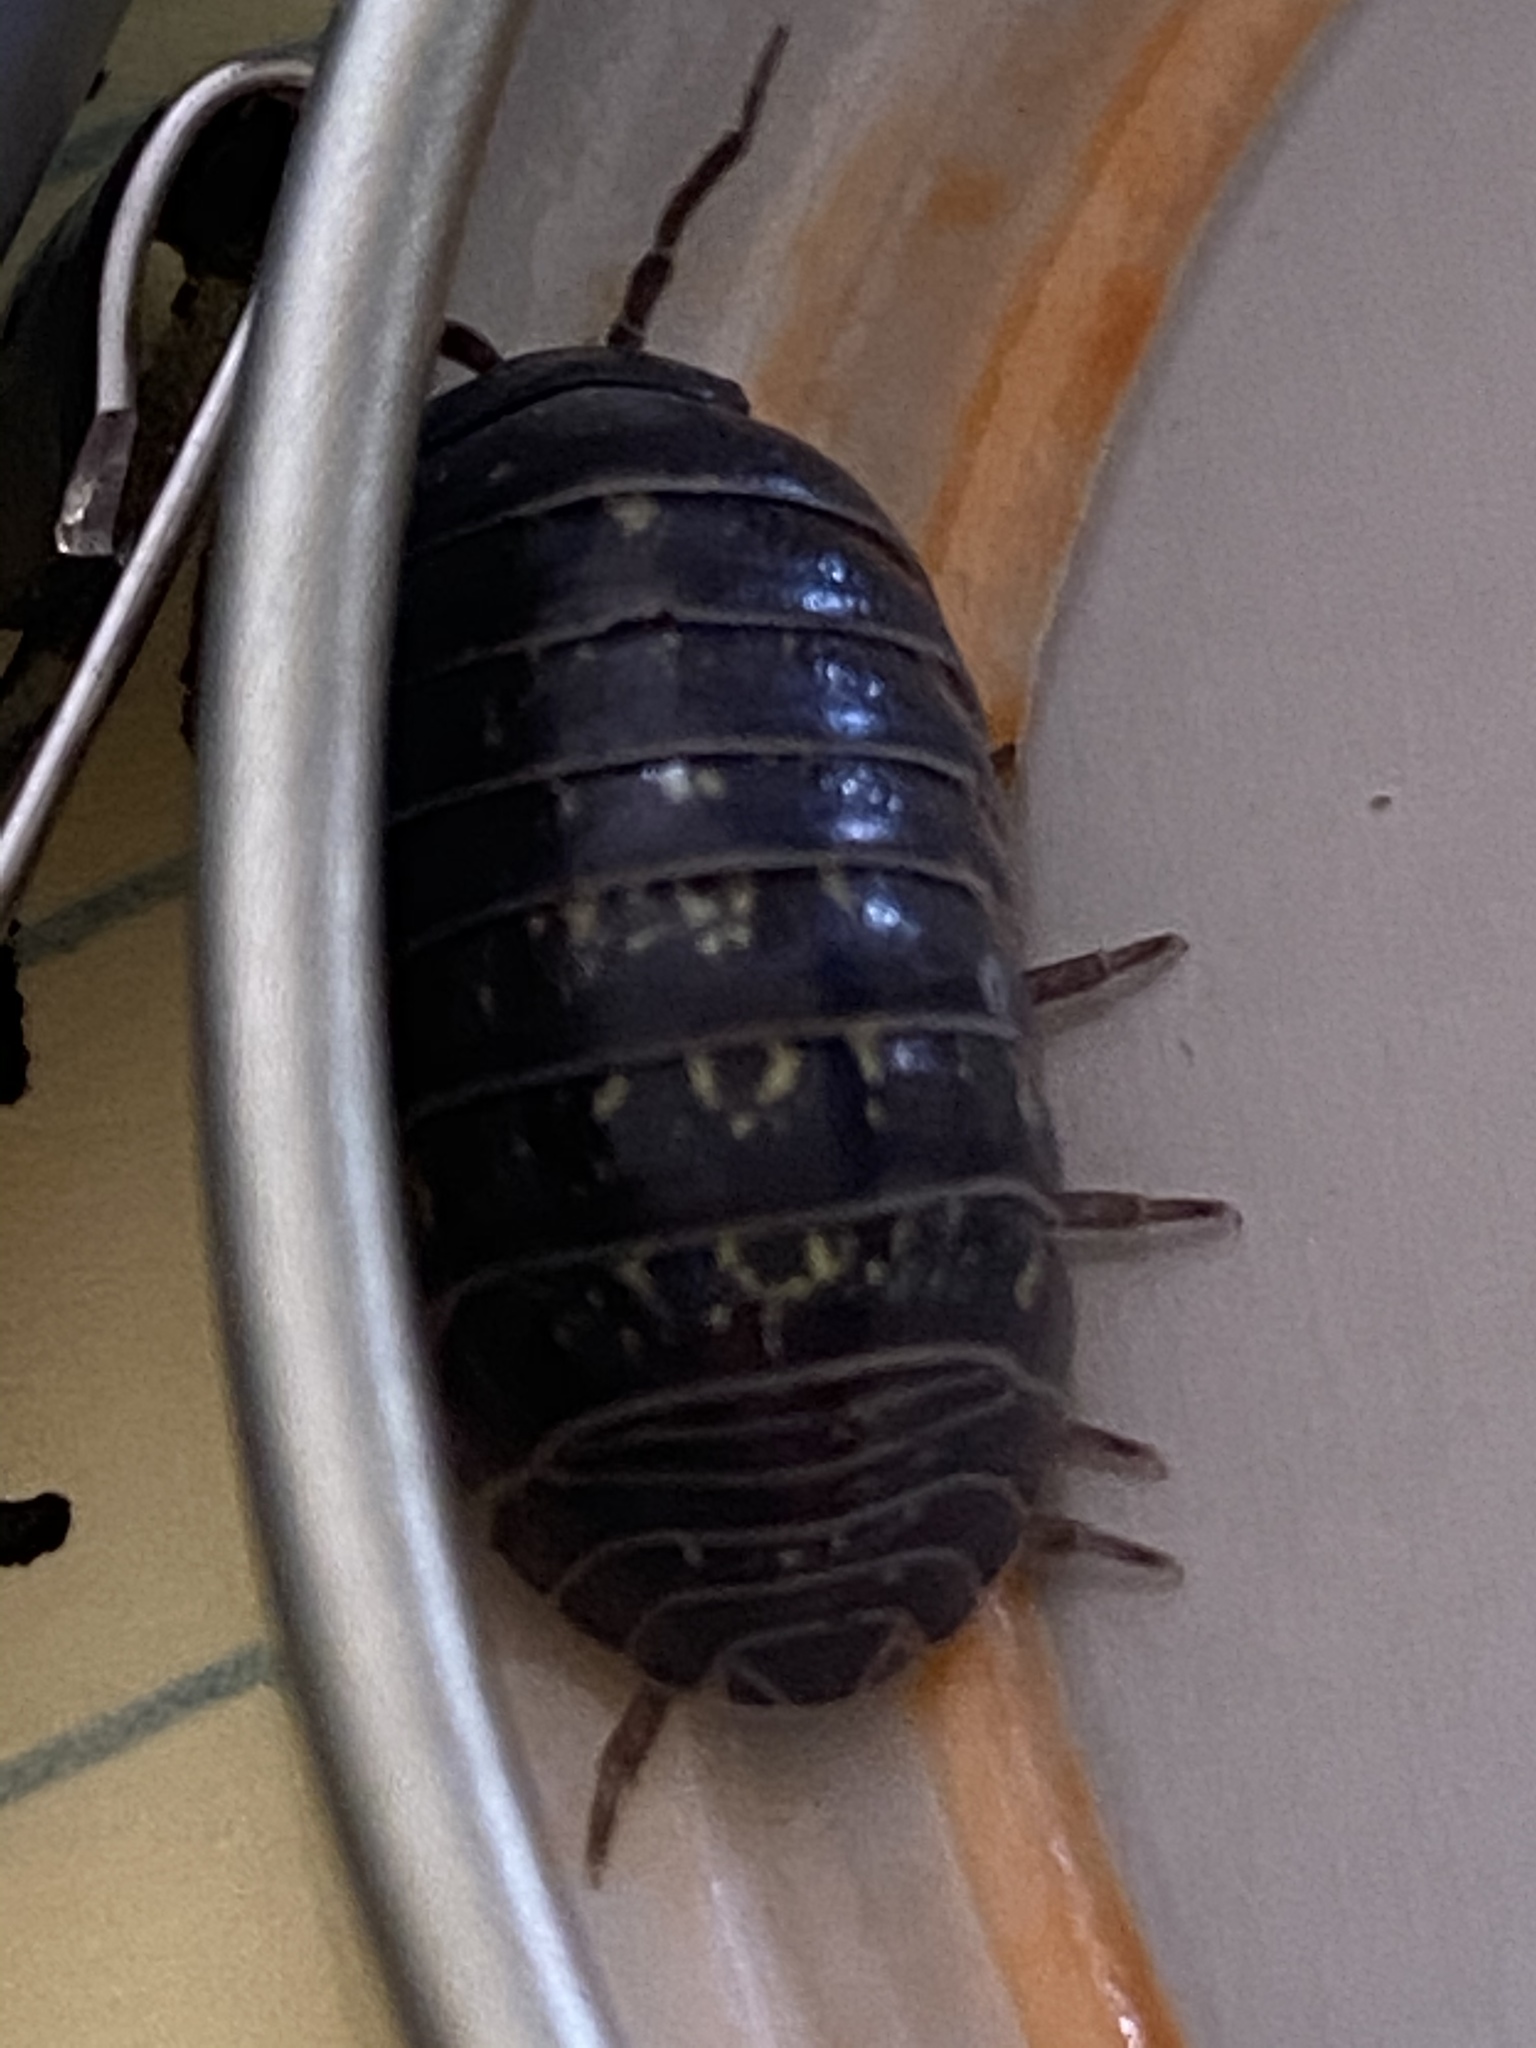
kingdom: Animalia
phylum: Arthropoda
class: Malacostraca
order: Isopoda
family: Armadillidiidae
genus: Armadillidium
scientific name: Armadillidium vulgare
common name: Common pill woodlouse
